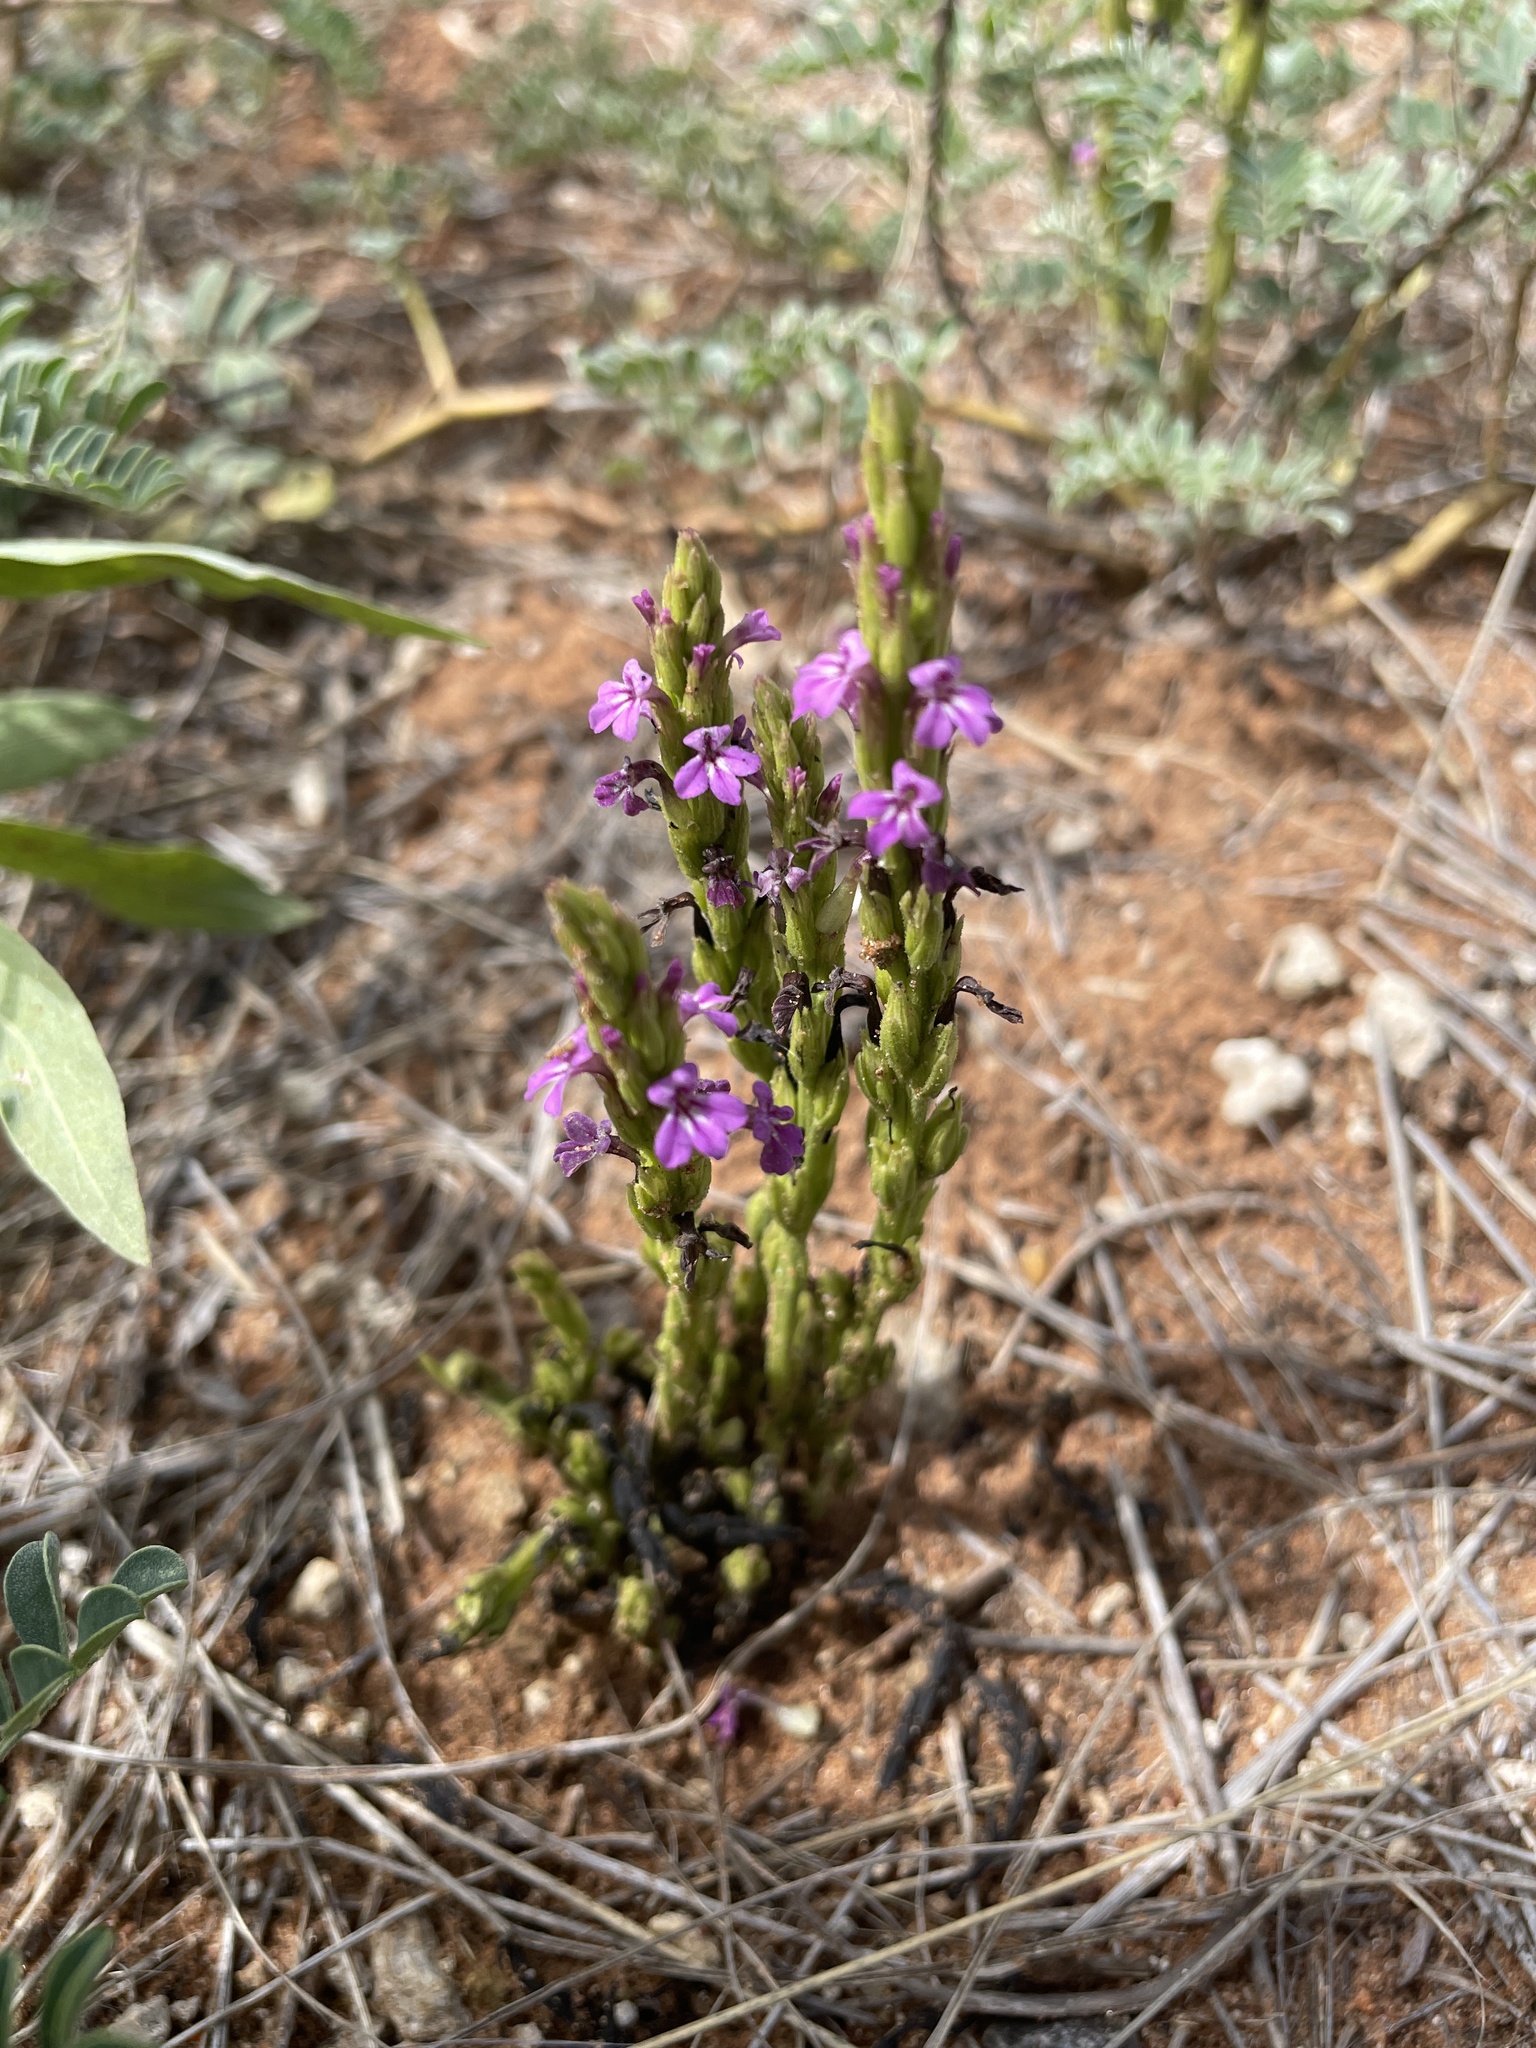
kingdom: Plantae
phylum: Tracheophyta
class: Magnoliopsida
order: Lamiales
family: Orobanchaceae
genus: Striga
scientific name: Striga gesnerioides
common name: Cowpea witchweed
